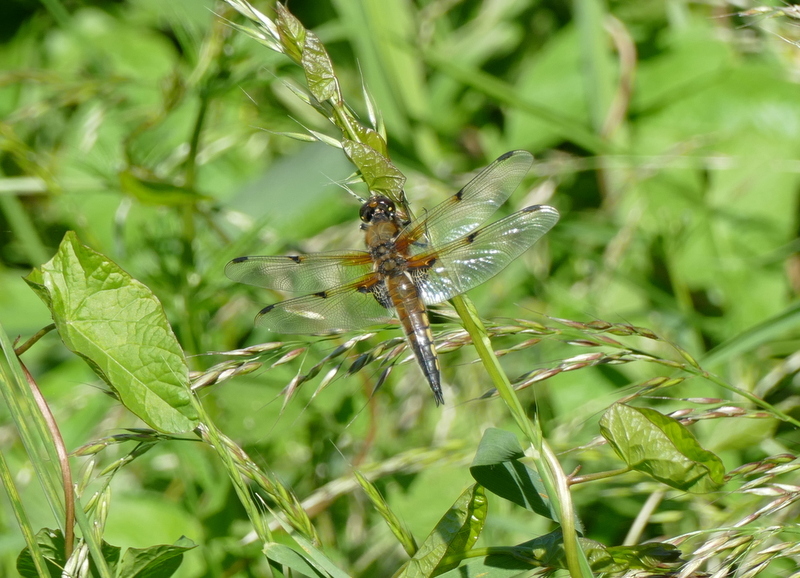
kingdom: Animalia
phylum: Arthropoda
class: Insecta
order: Odonata
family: Libellulidae
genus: Libellula
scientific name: Libellula quadrimaculata
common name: Four-spotted chaser
